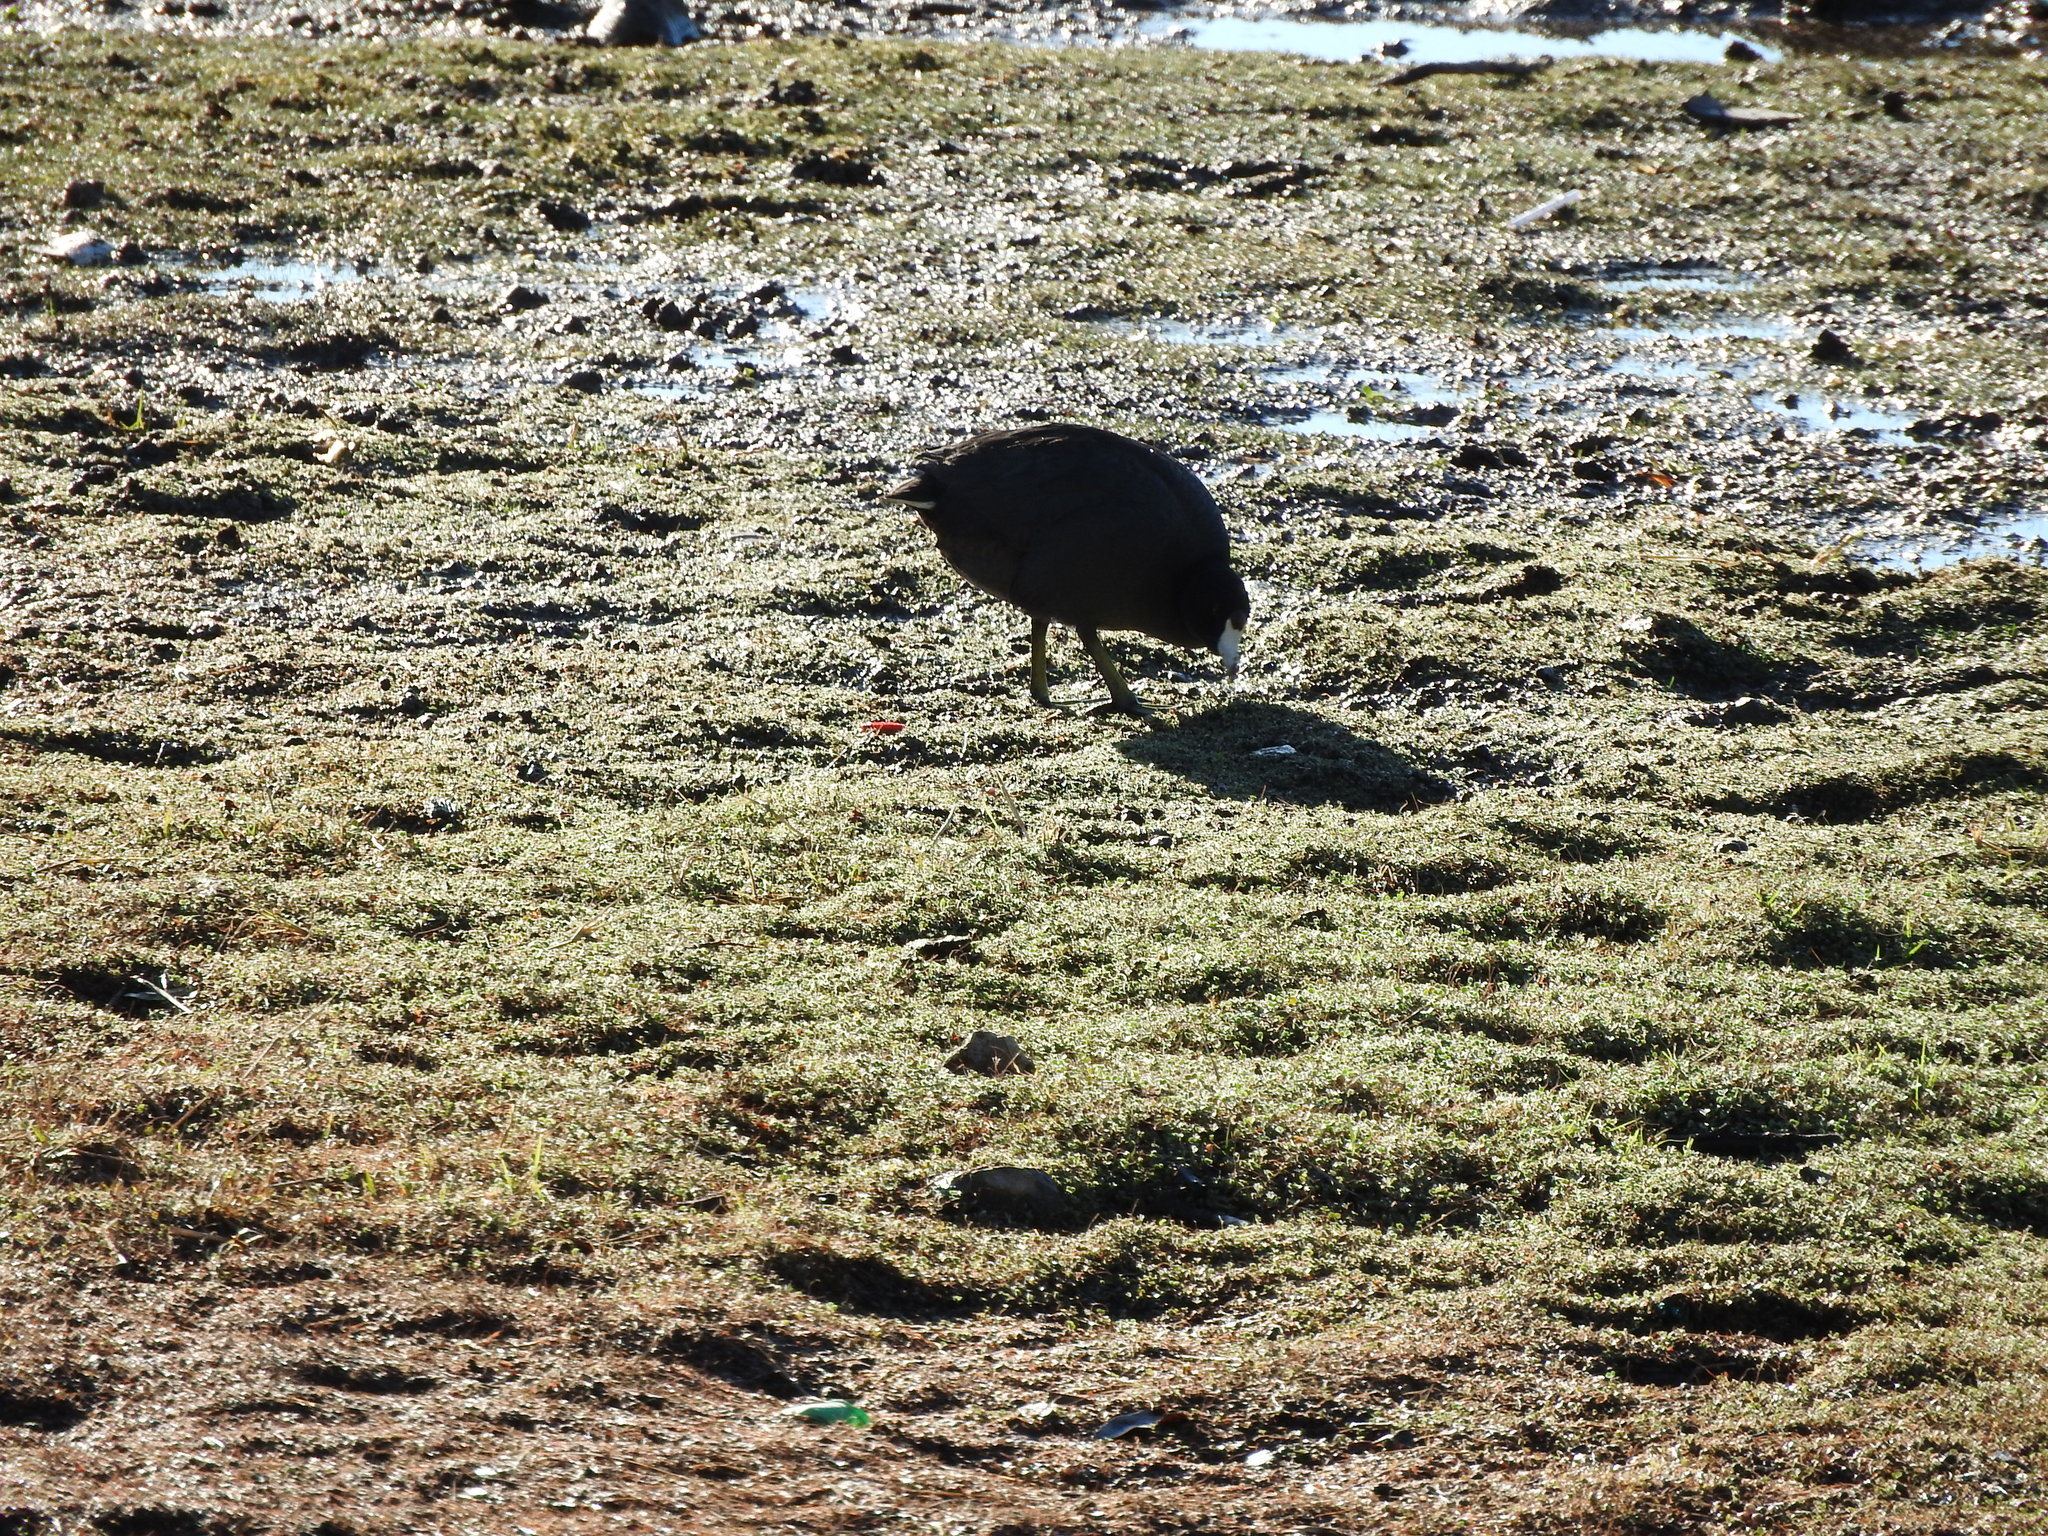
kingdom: Animalia
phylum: Chordata
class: Aves
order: Gruiformes
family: Rallidae
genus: Fulica
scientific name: Fulica americana
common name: American coot
